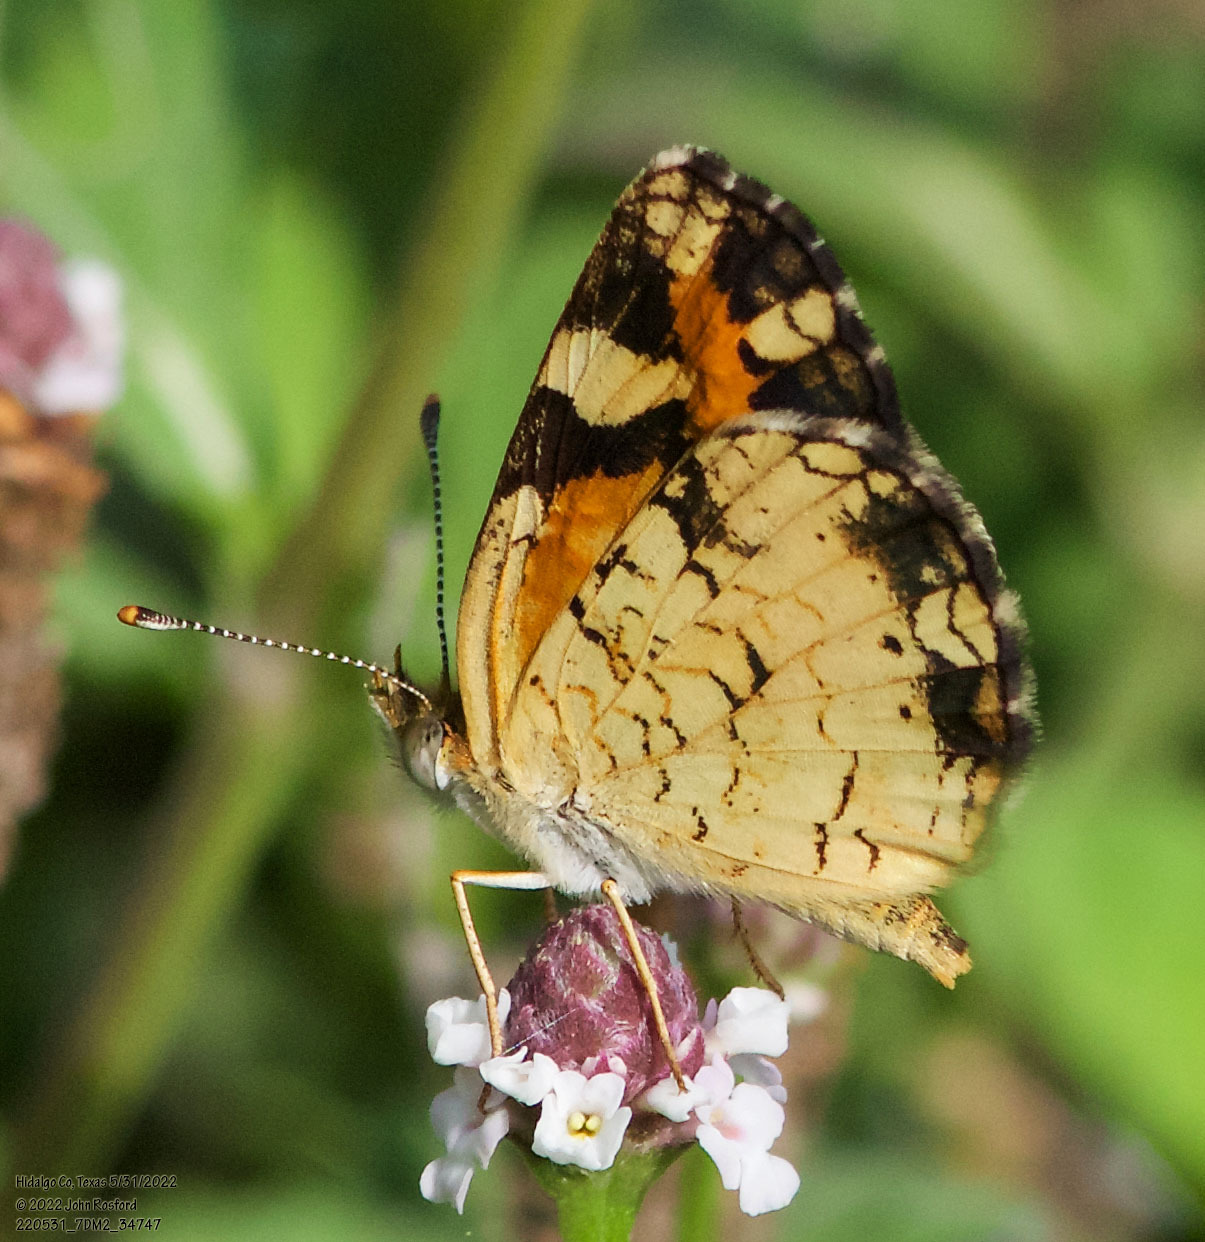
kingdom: Animalia
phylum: Arthropoda
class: Insecta
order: Lepidoptera
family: Nymphalidae
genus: Phyciodes
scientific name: Phyciodes phaon
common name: Phaon crescent
